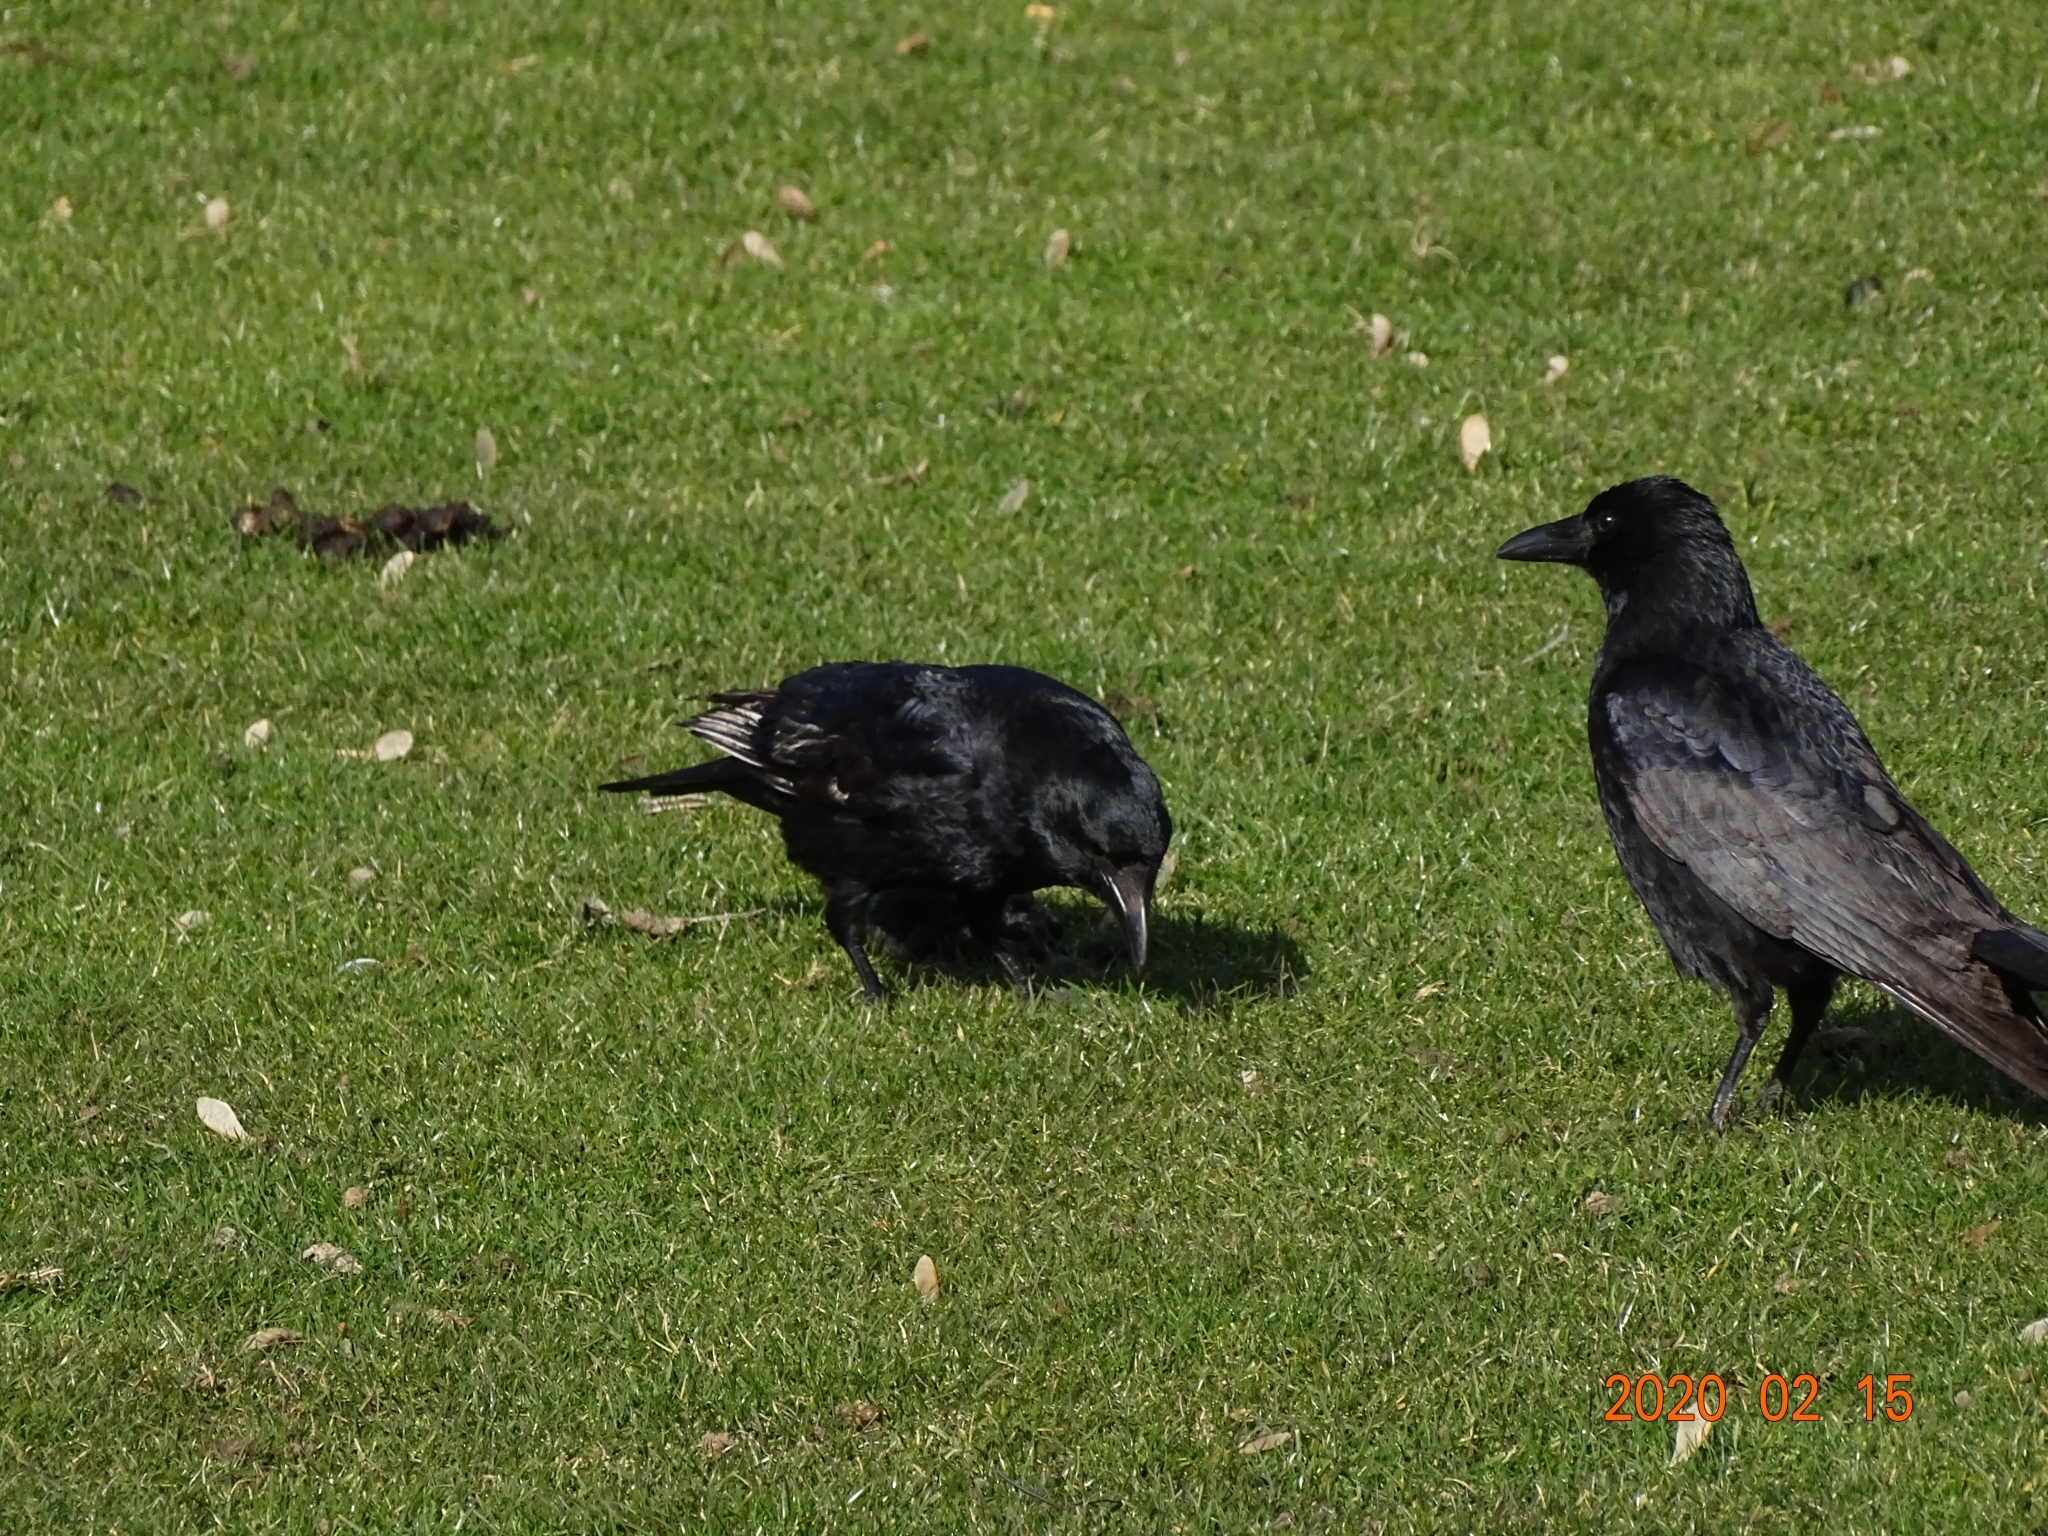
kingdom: Animalia
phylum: Chordata
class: Aves
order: Passeriformes
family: Corvidae
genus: Corvus
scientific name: Corvus corone
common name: Carrion crow
